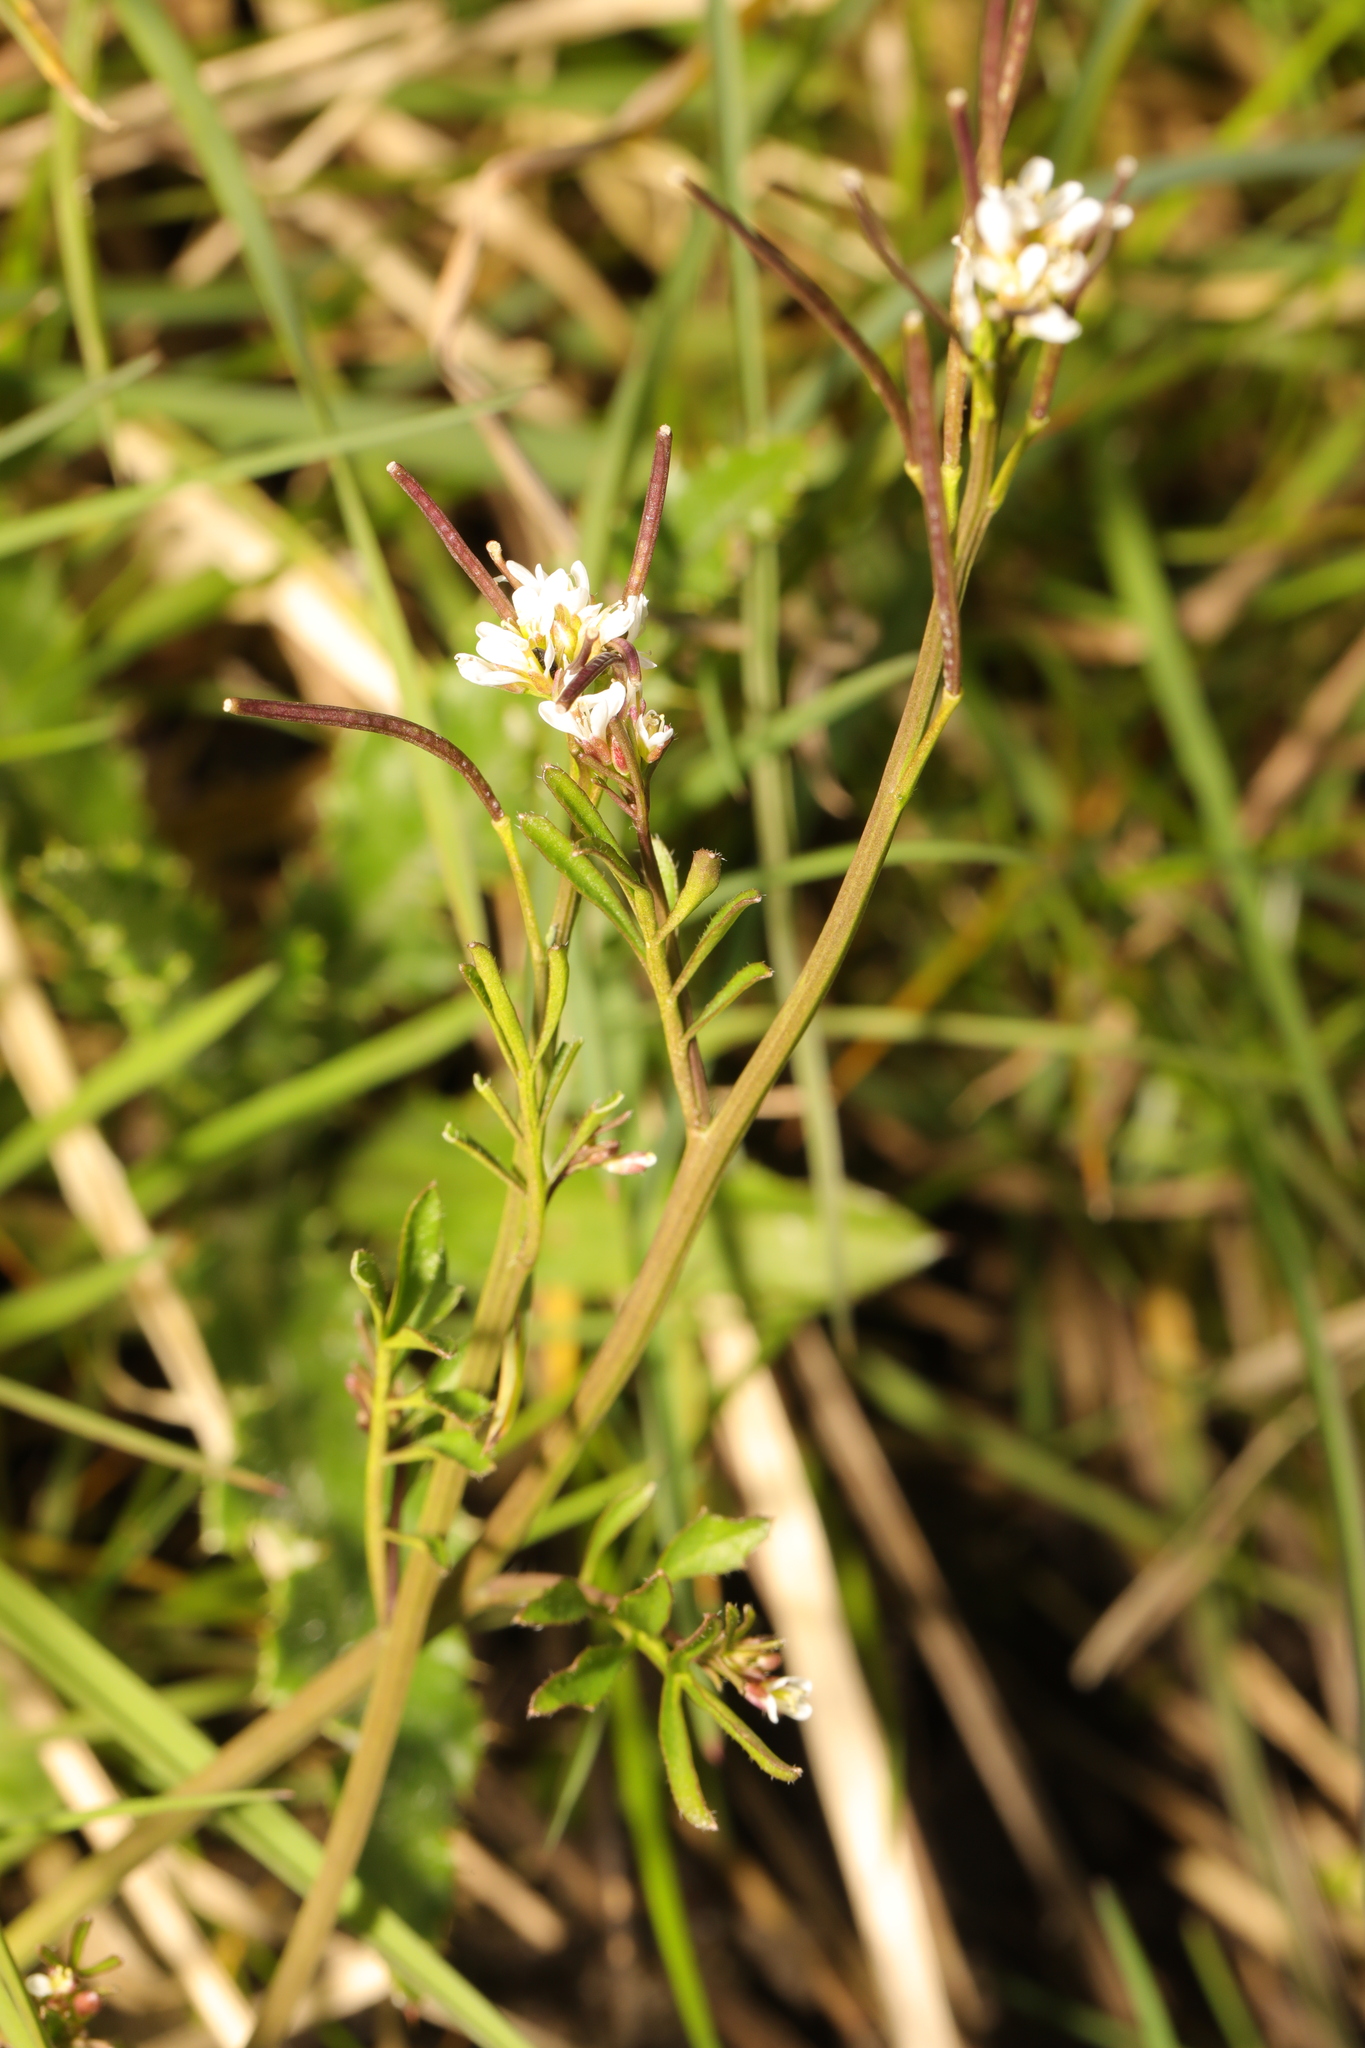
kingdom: Plantae
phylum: Tracheophyta
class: Magnoliopsida
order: Brassicales
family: Brassicaceae
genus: Cardamine
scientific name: Cardamine hirsuta
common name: Hairy bittercress
